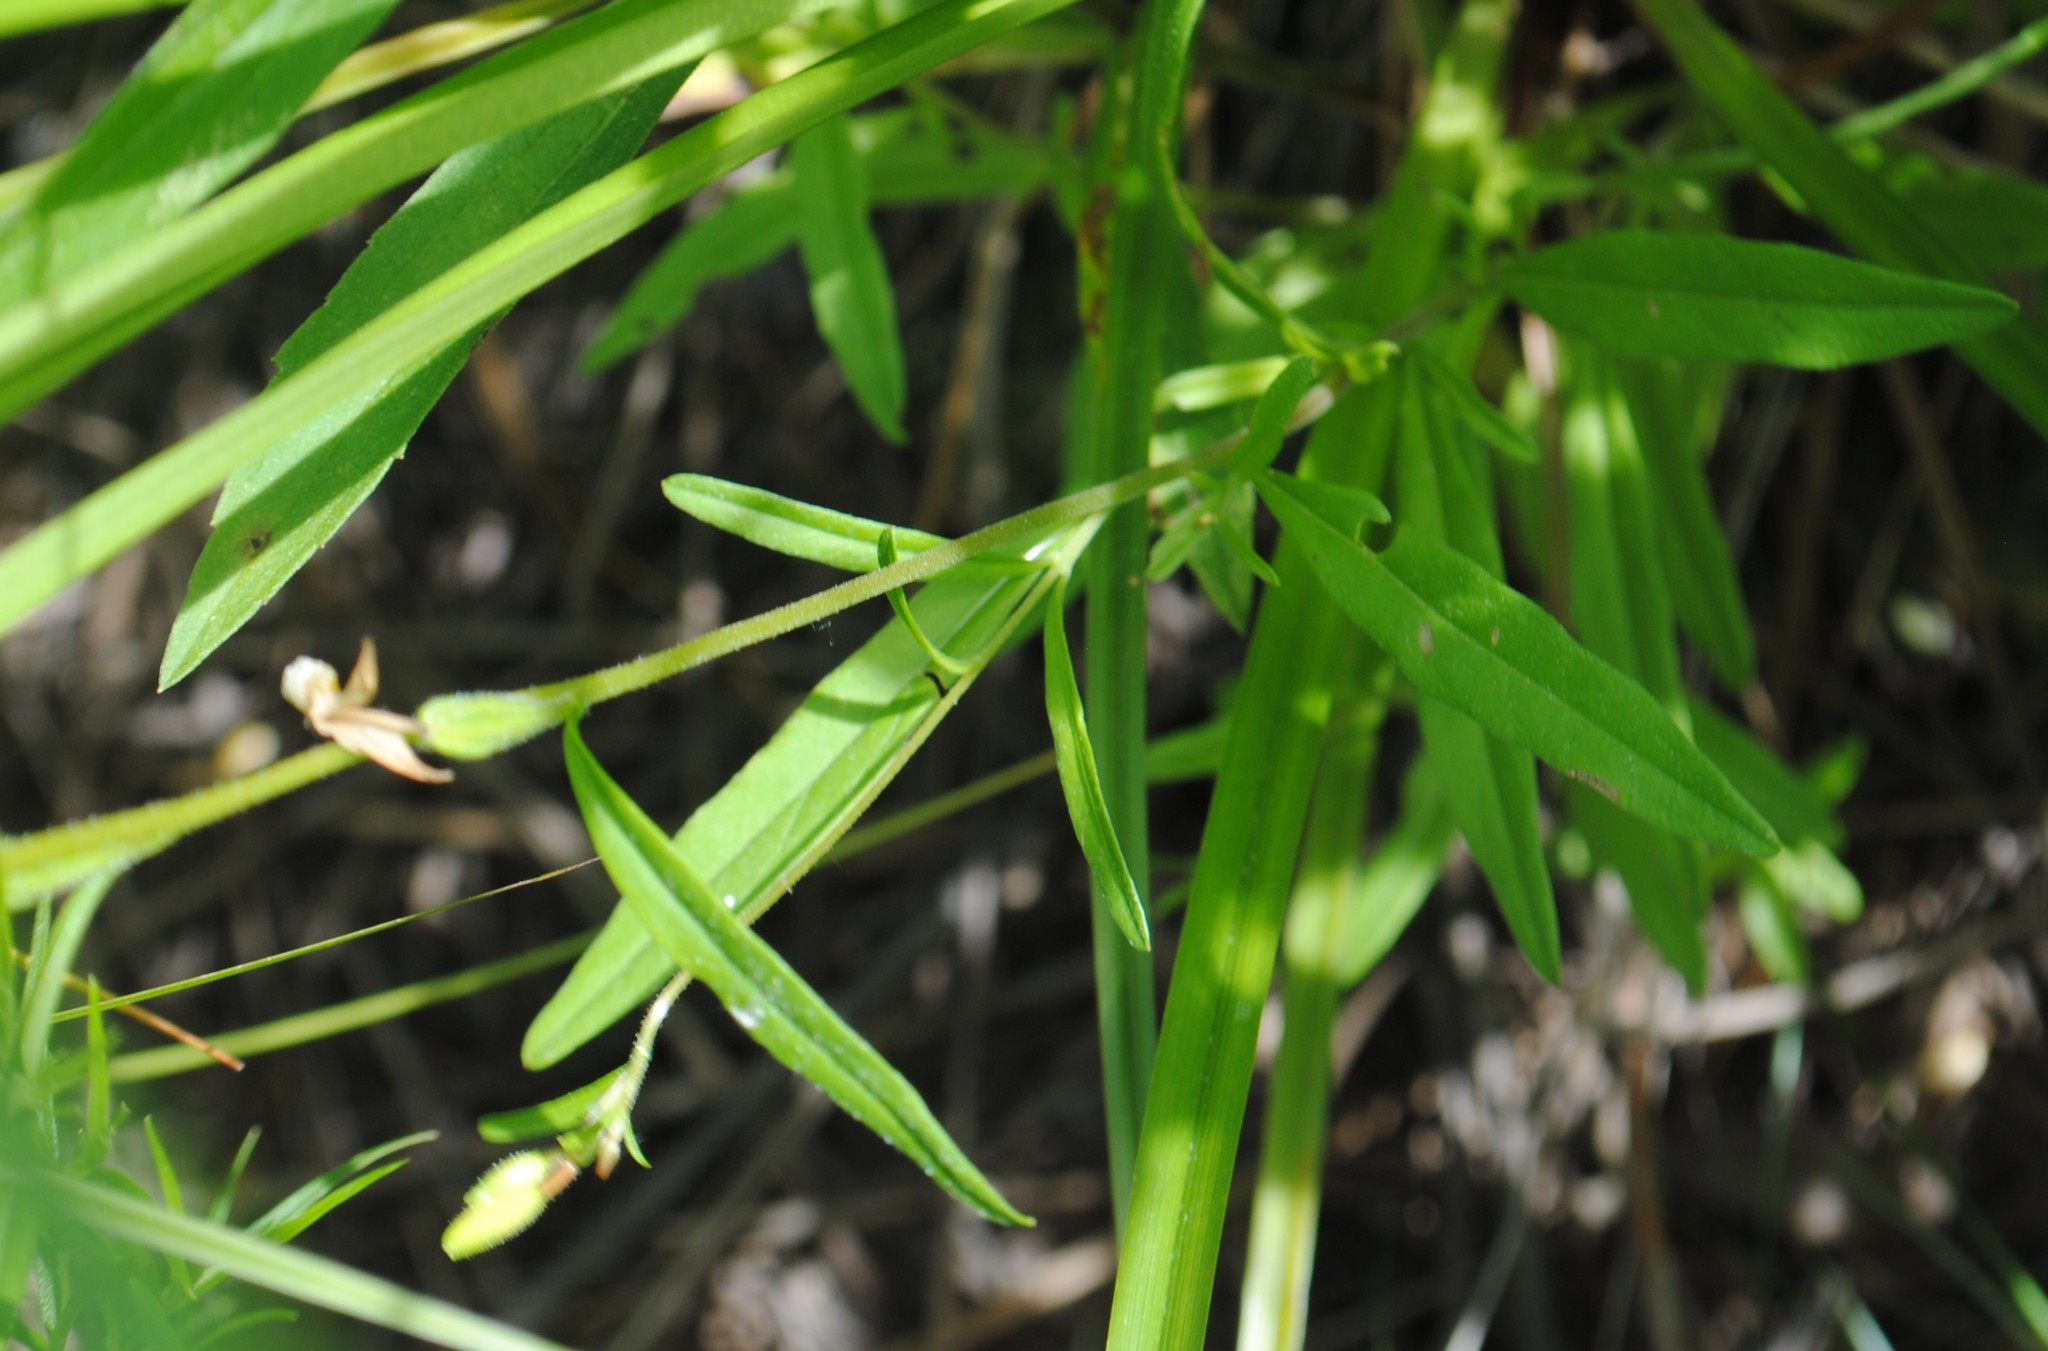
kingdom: Plantae
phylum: Tracheophyta
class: Magnoliopsida
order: Myrtales
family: Onagraceae
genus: Oenothera
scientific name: Oenothera perennis
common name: Small sundrops
